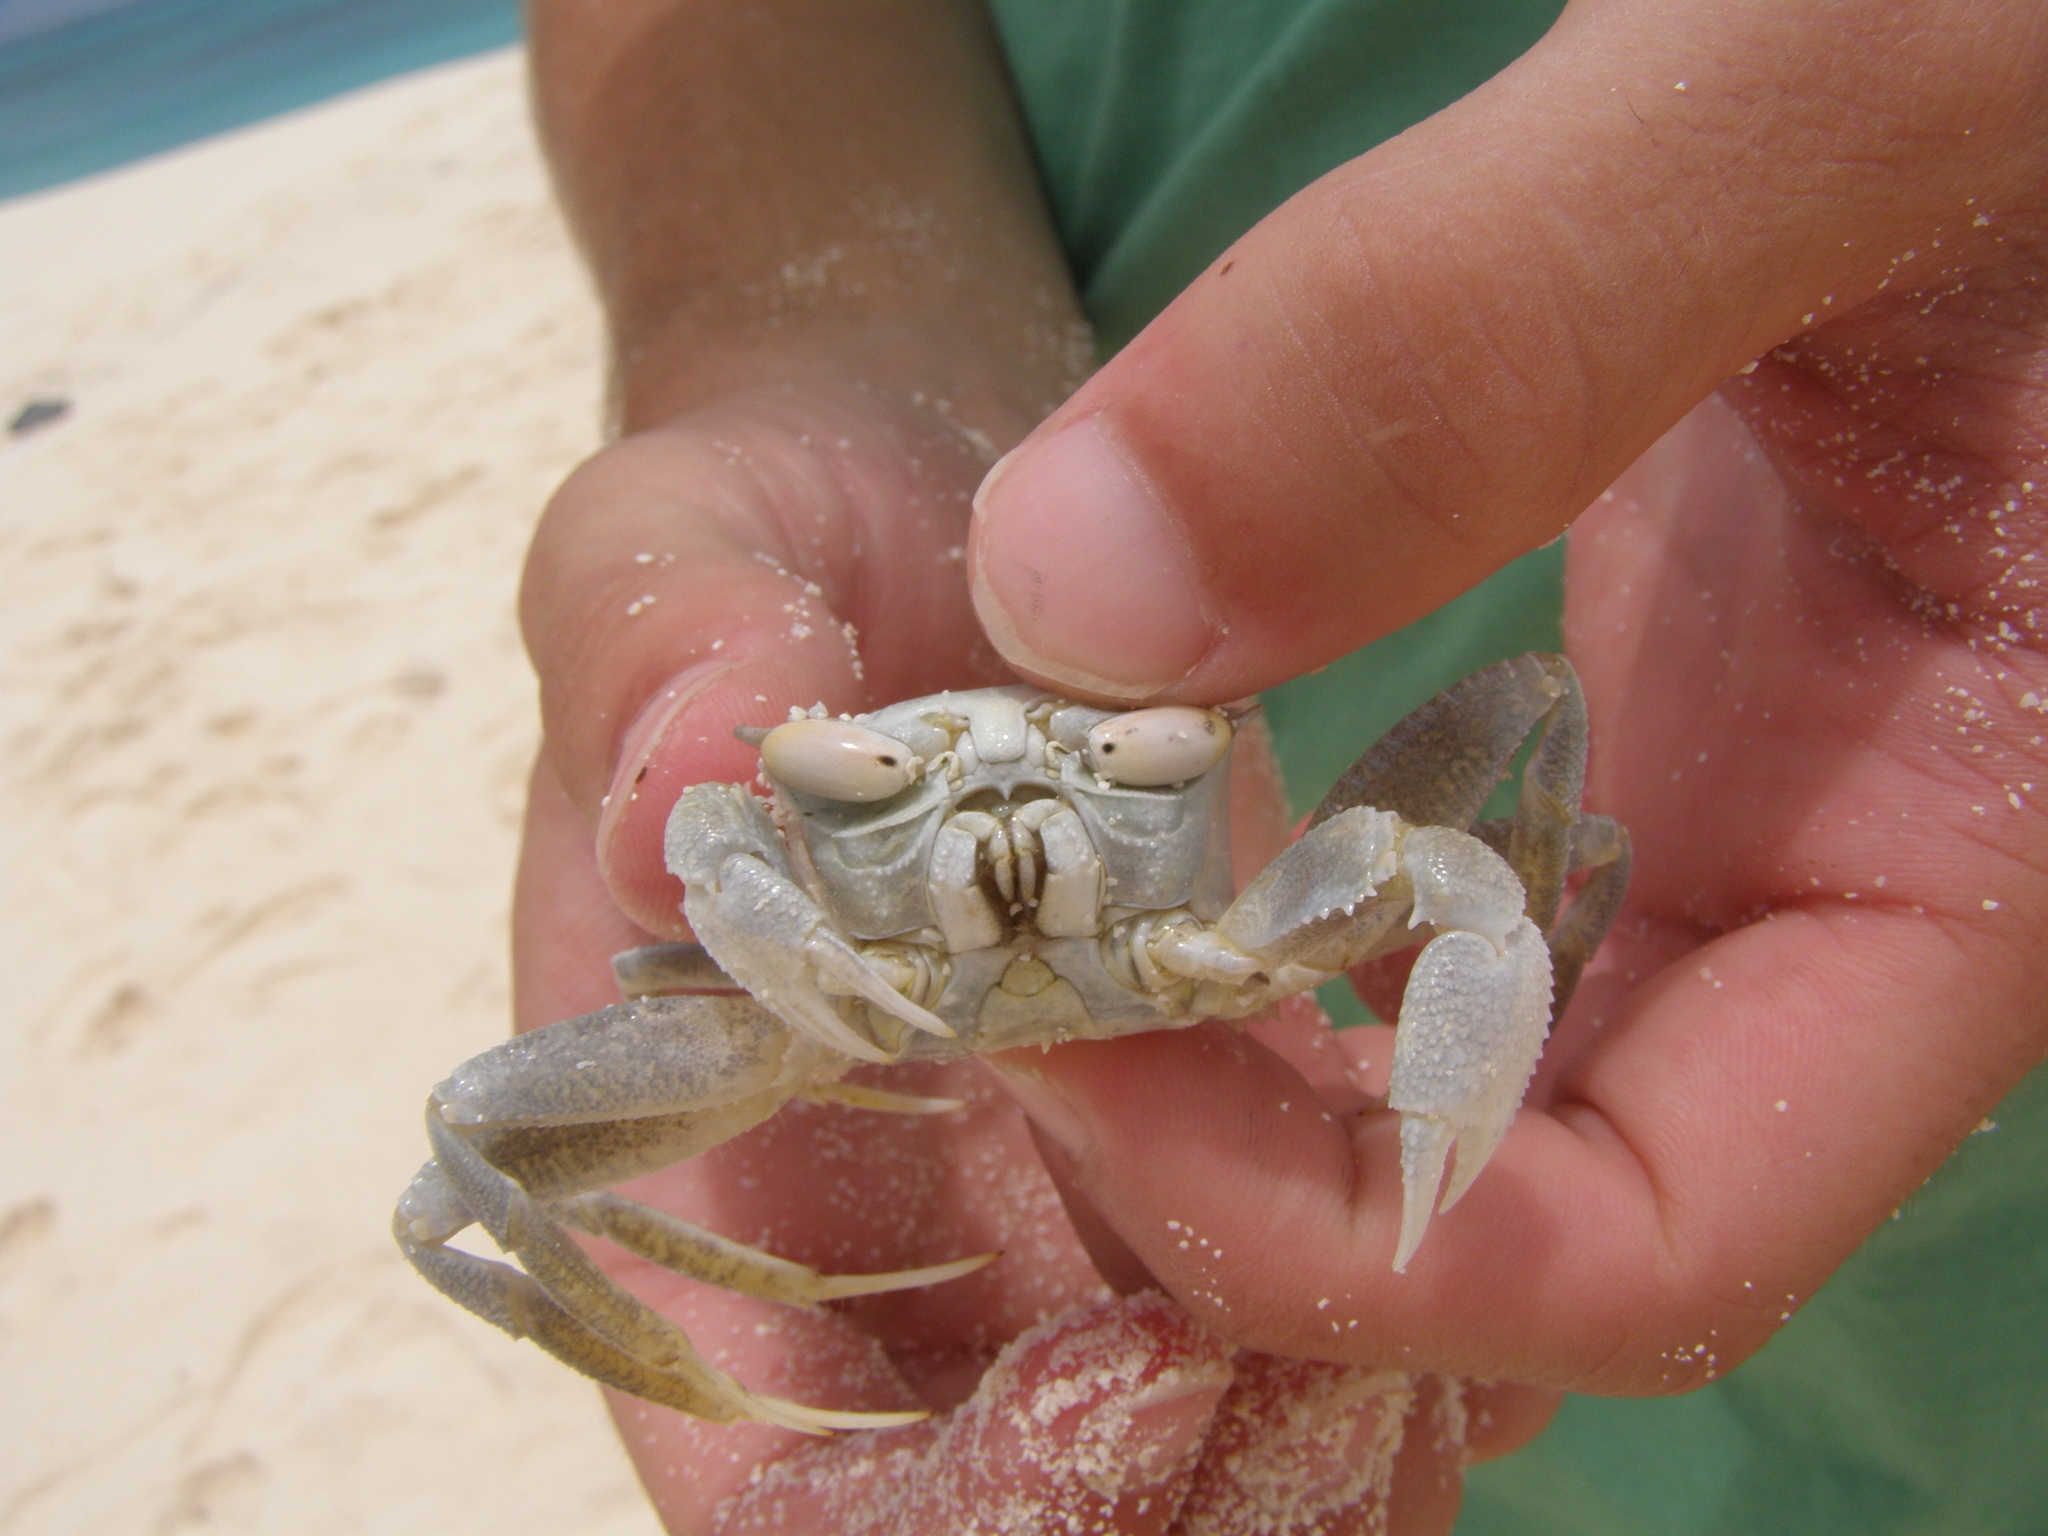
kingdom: Animalia
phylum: Arthropoda
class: Malacostraca
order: Decapoda
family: Ocypodidae
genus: Ocypode
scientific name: Ocypode ceratophthalmus
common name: Indo-pacific ghost crab
